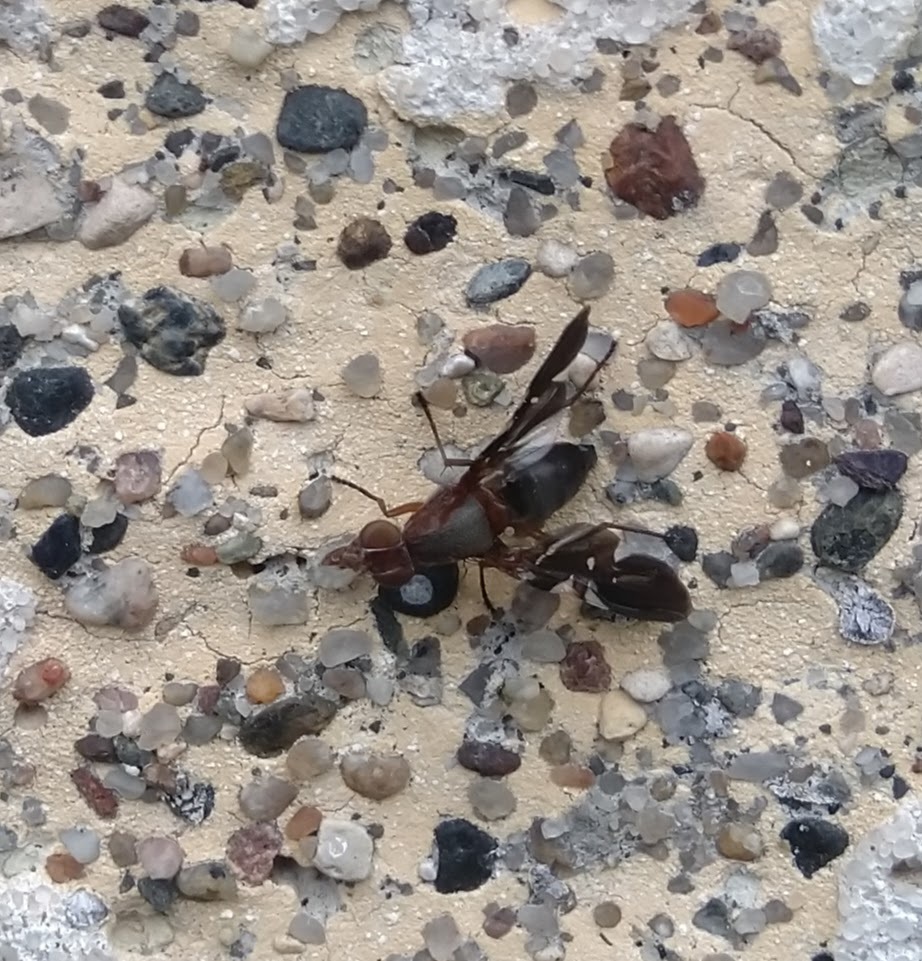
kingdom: Animalia
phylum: Arthropoda
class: Insecta
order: Diptera
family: Ulidiidae
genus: Delphinia
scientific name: Delphinia picta
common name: Common picture-winged fly
